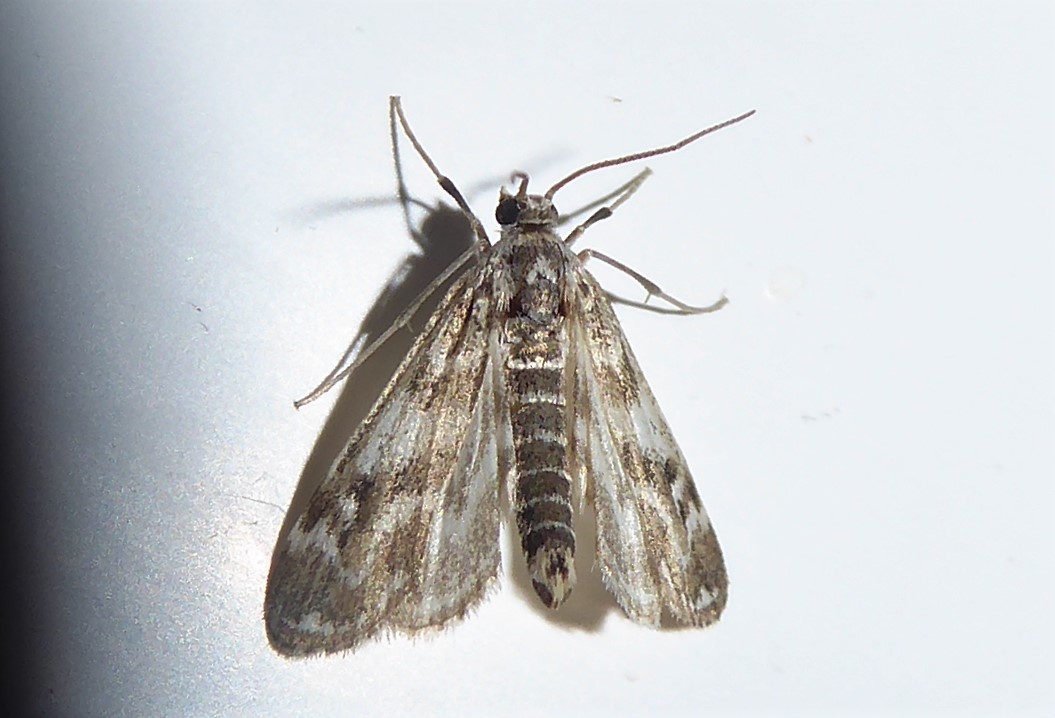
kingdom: Animalia
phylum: Arthropoda
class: Insecta
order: Lepidoptera
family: Crambidae
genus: Hygraula
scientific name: Hygraula nitens
